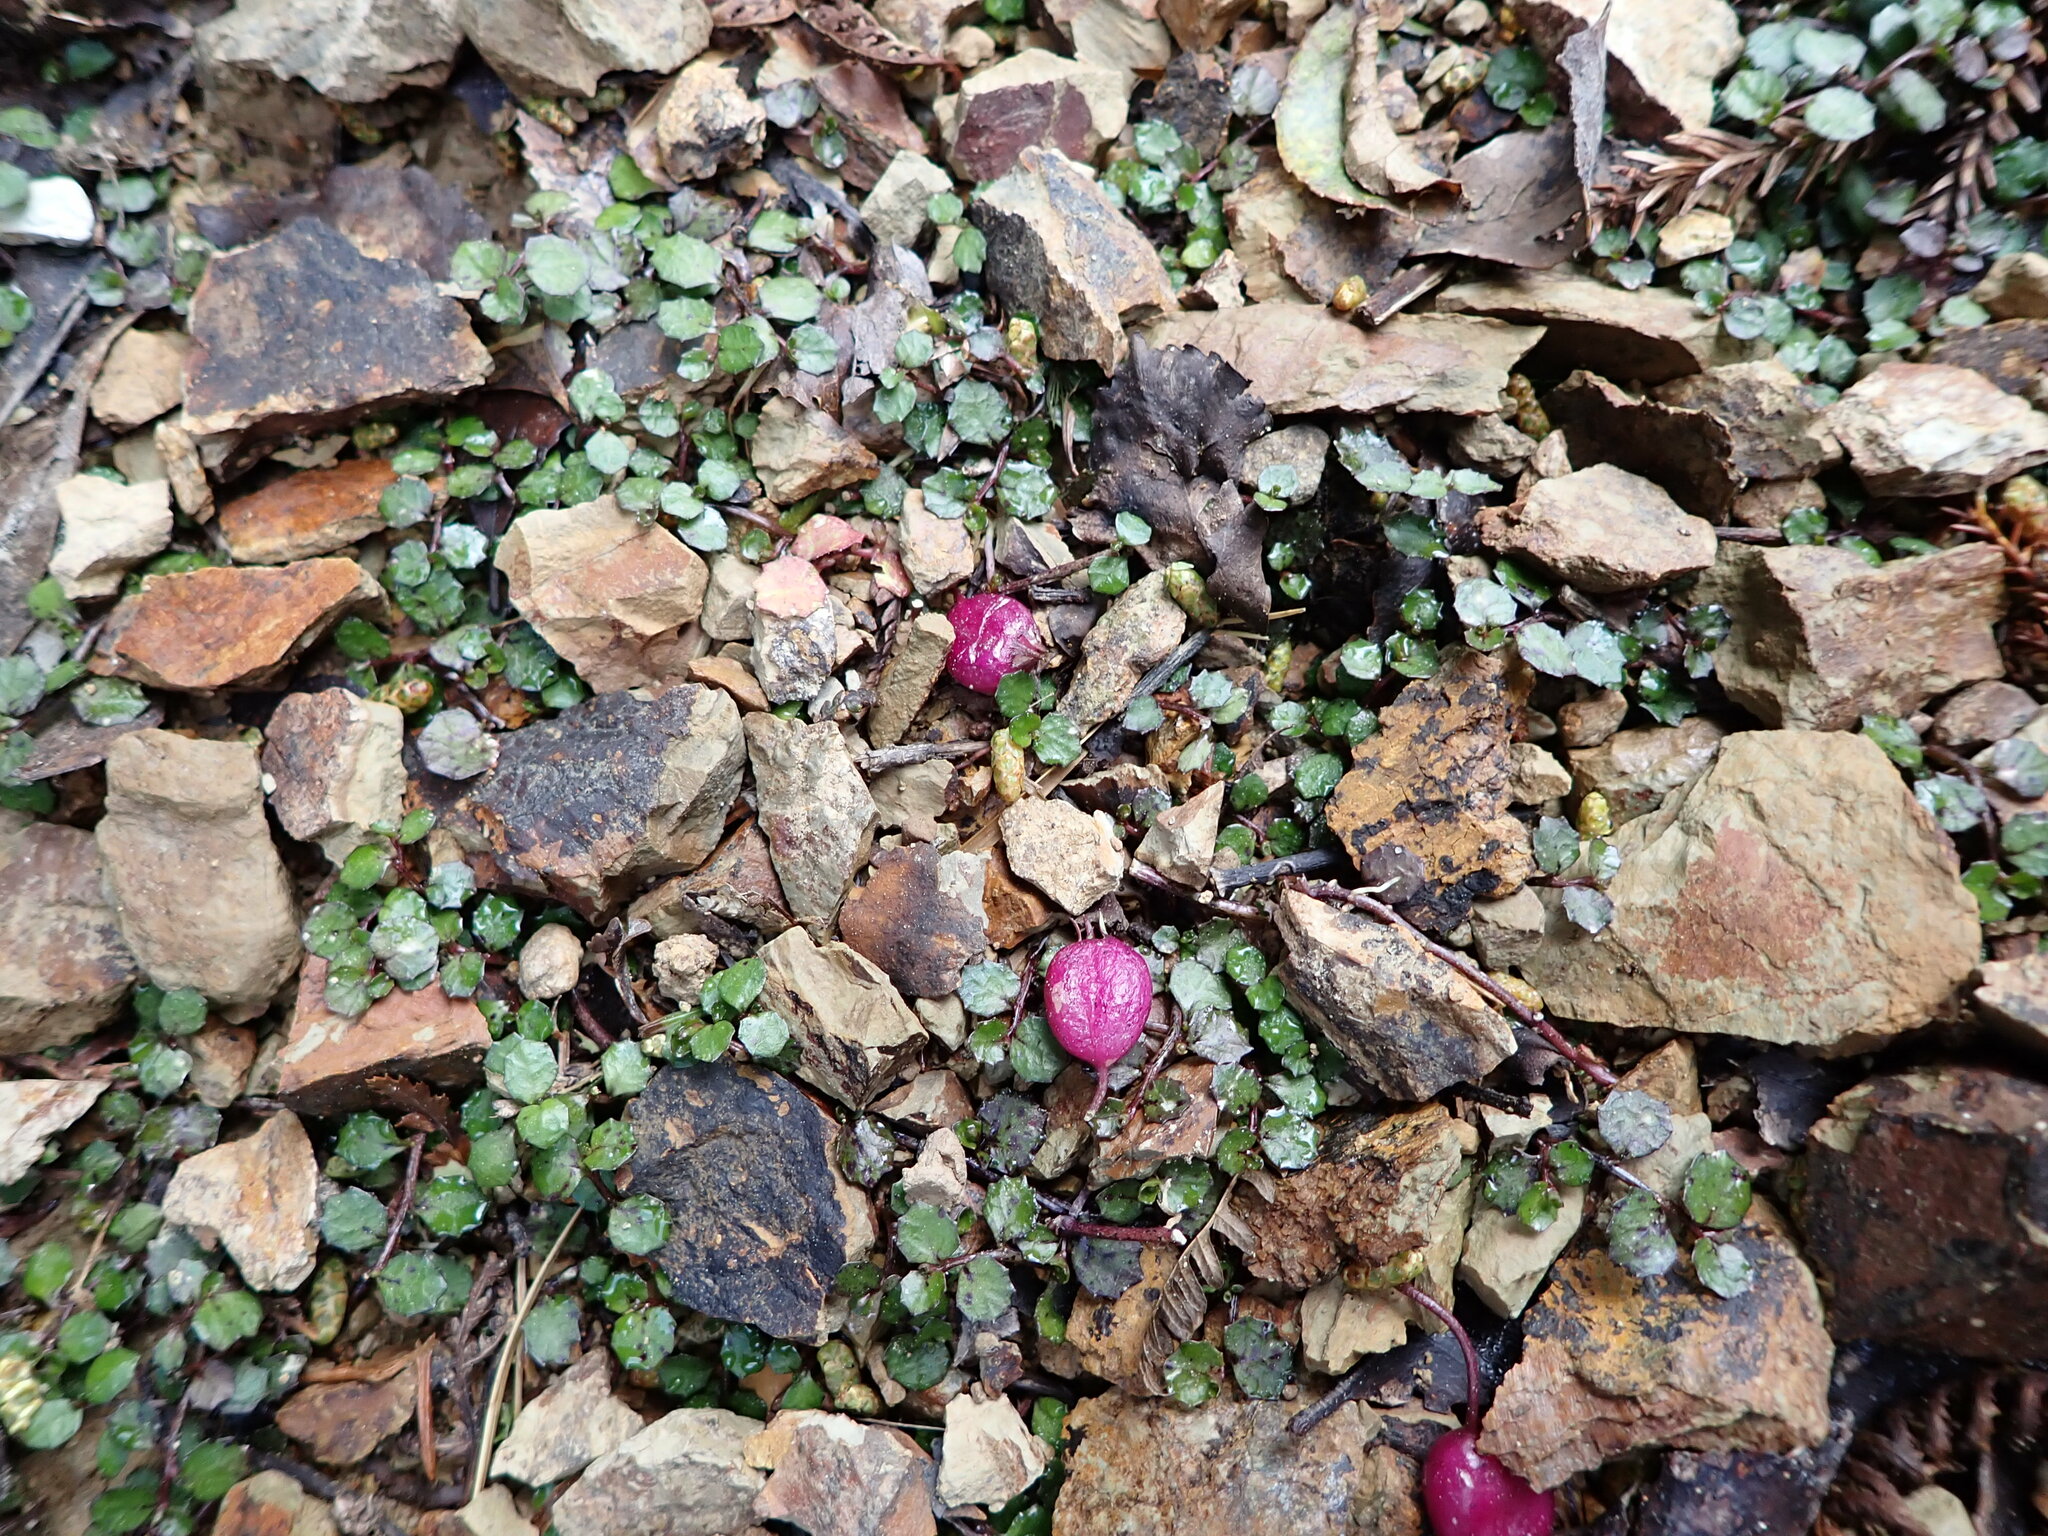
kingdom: Plantae
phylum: Tracheophyta
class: Magnoliopsida
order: Asterales
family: Campanulaceae
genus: Lobelia
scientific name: Lobelia angulata
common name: Lawn lobelia
